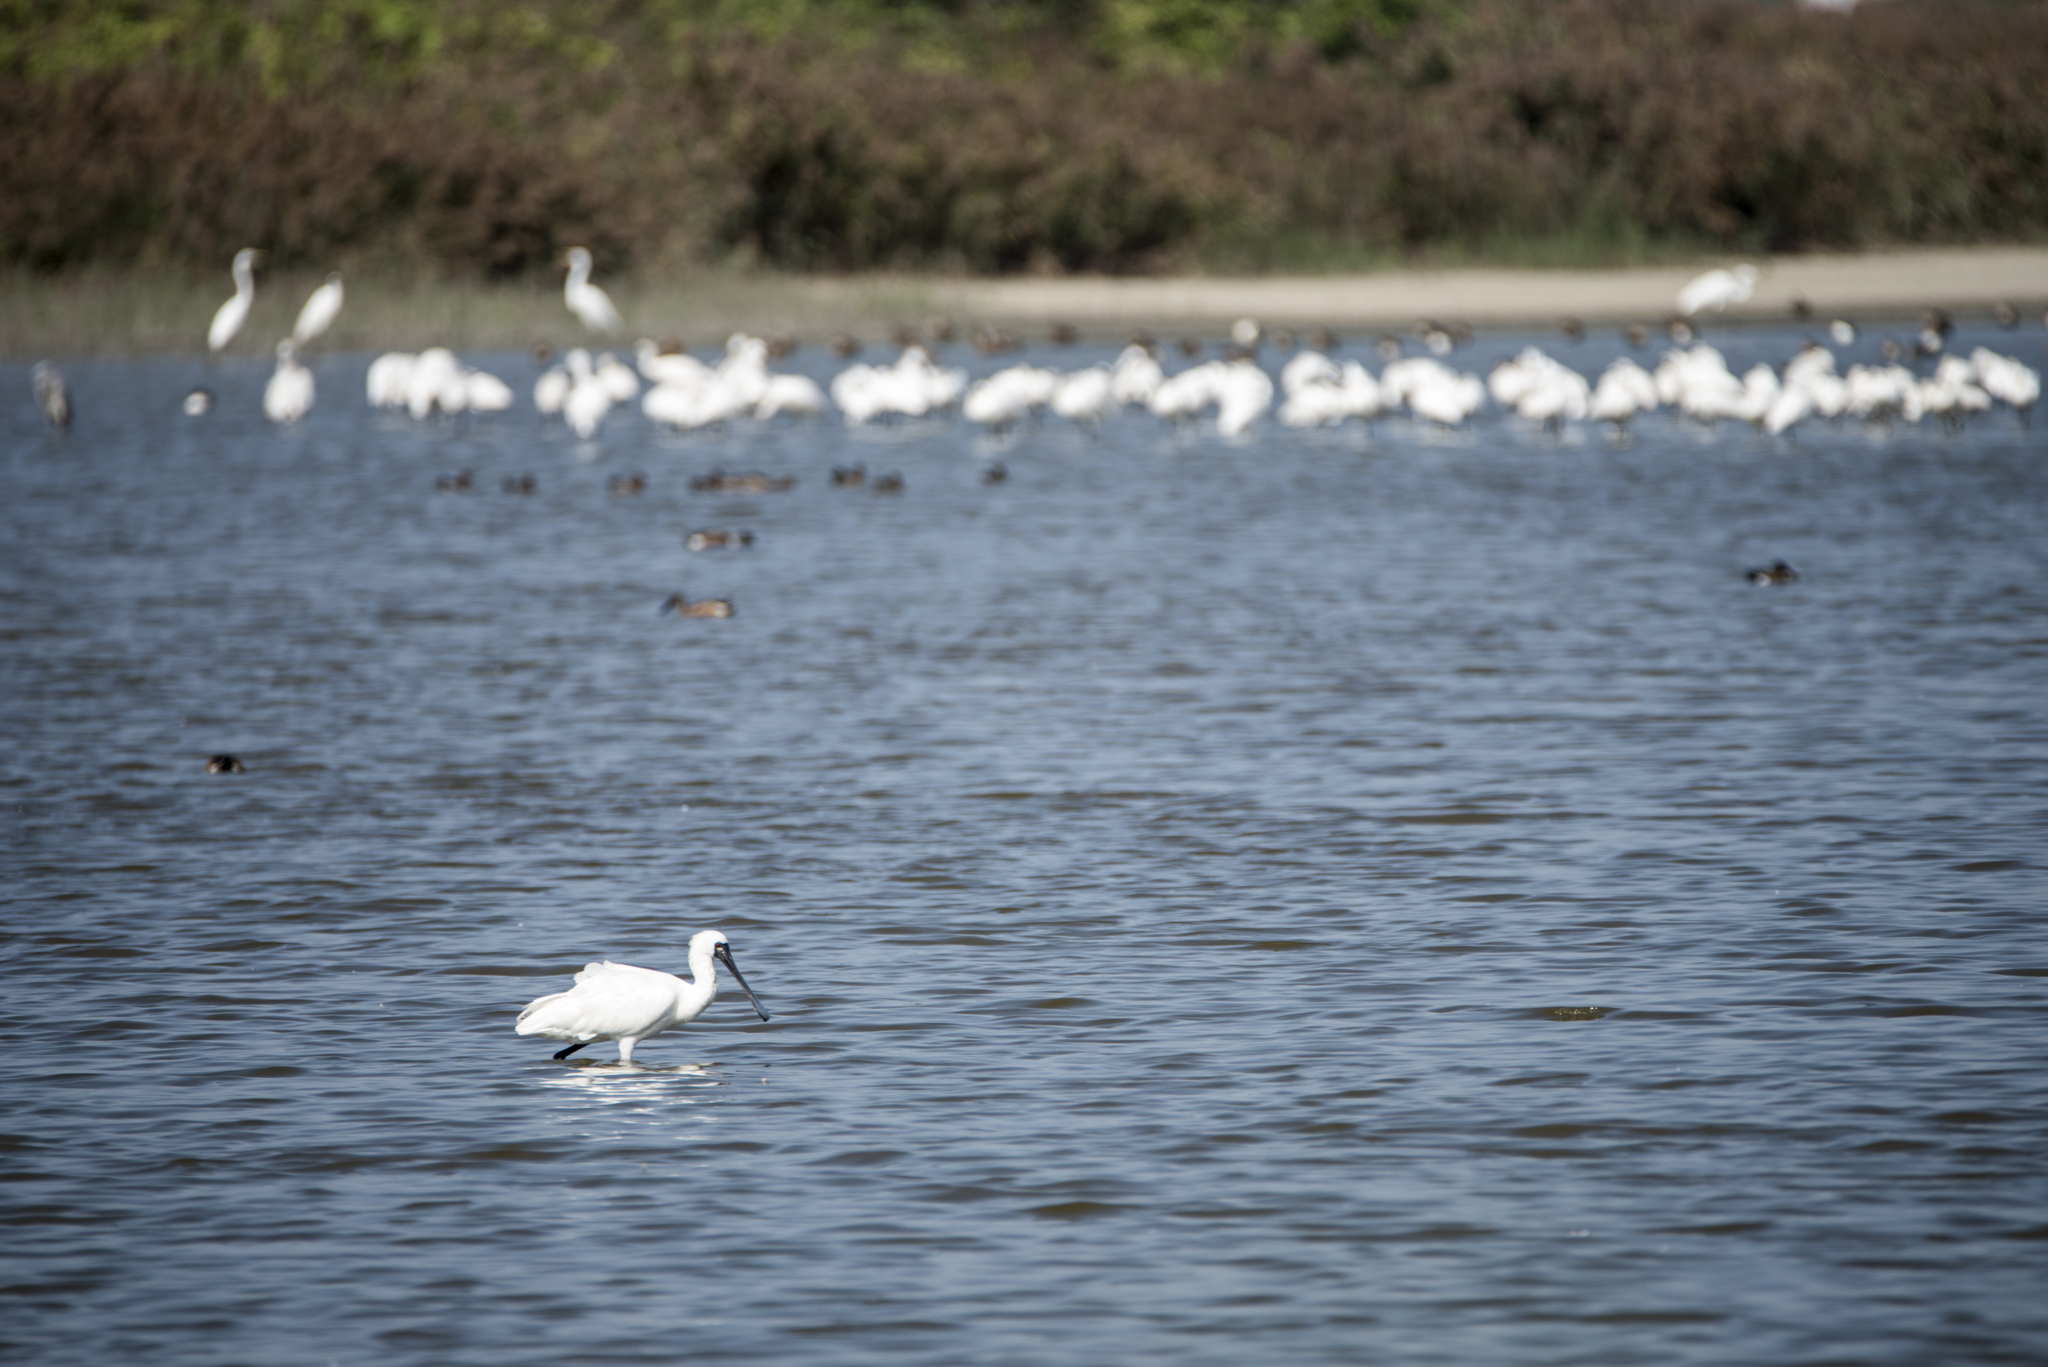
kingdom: Animalia
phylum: Chordata
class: Aves
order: Pelecaniformes
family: Threskiornithidae
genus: Platalea
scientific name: Platalea minor
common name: Black-faced spoonbill
